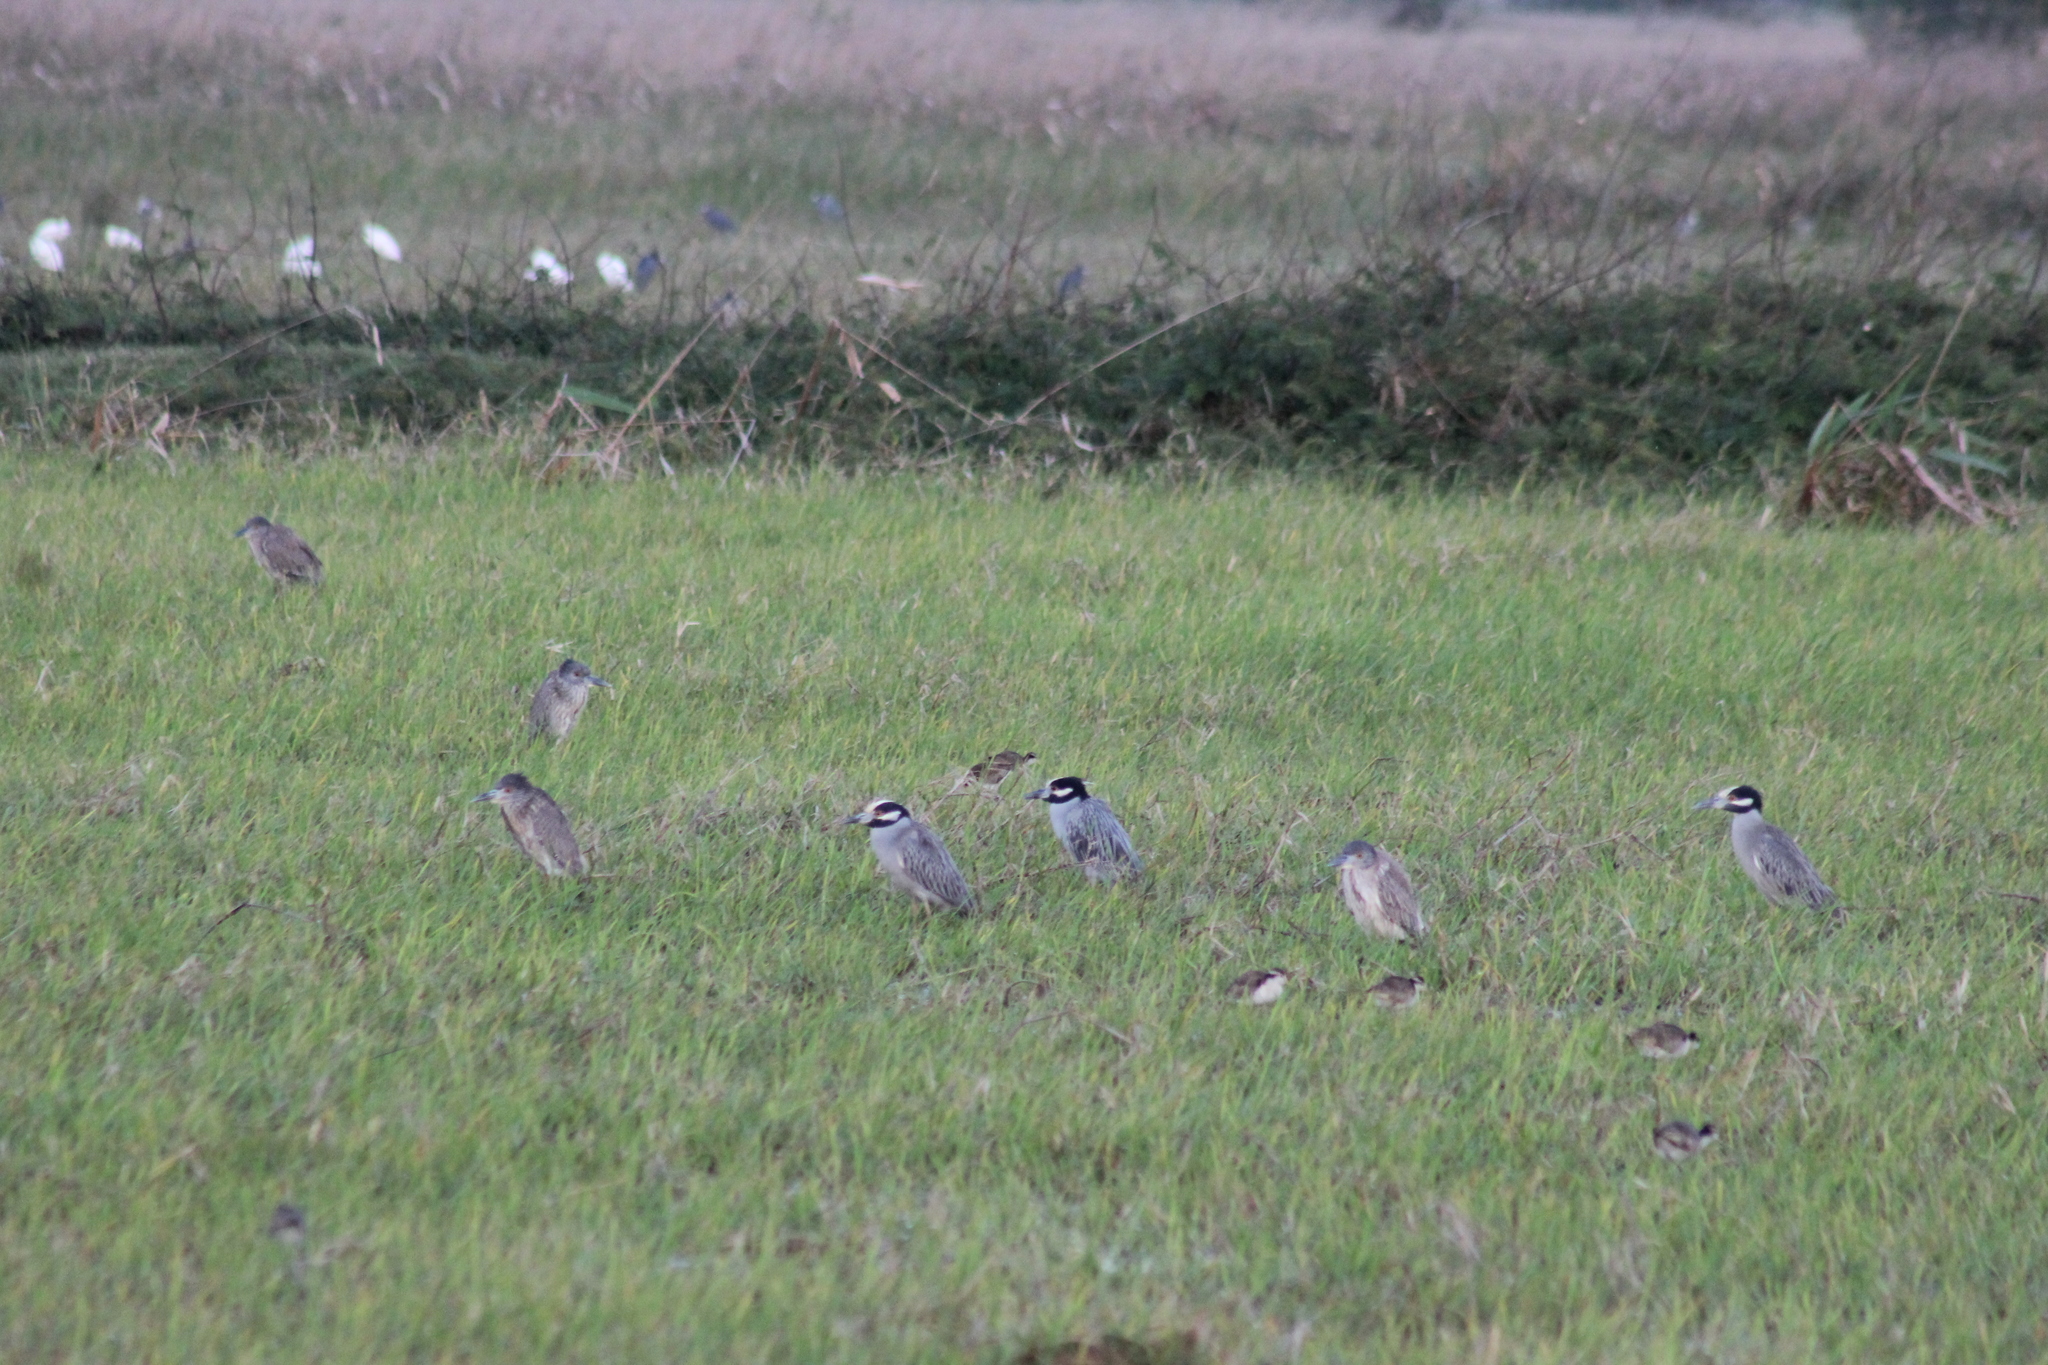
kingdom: Animalia
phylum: Chordata
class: Aves
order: Pelecaniformes
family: Ardeidae
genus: Nyctanassa
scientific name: Nyctanassa violacea
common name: Yellow-crowned night heron
